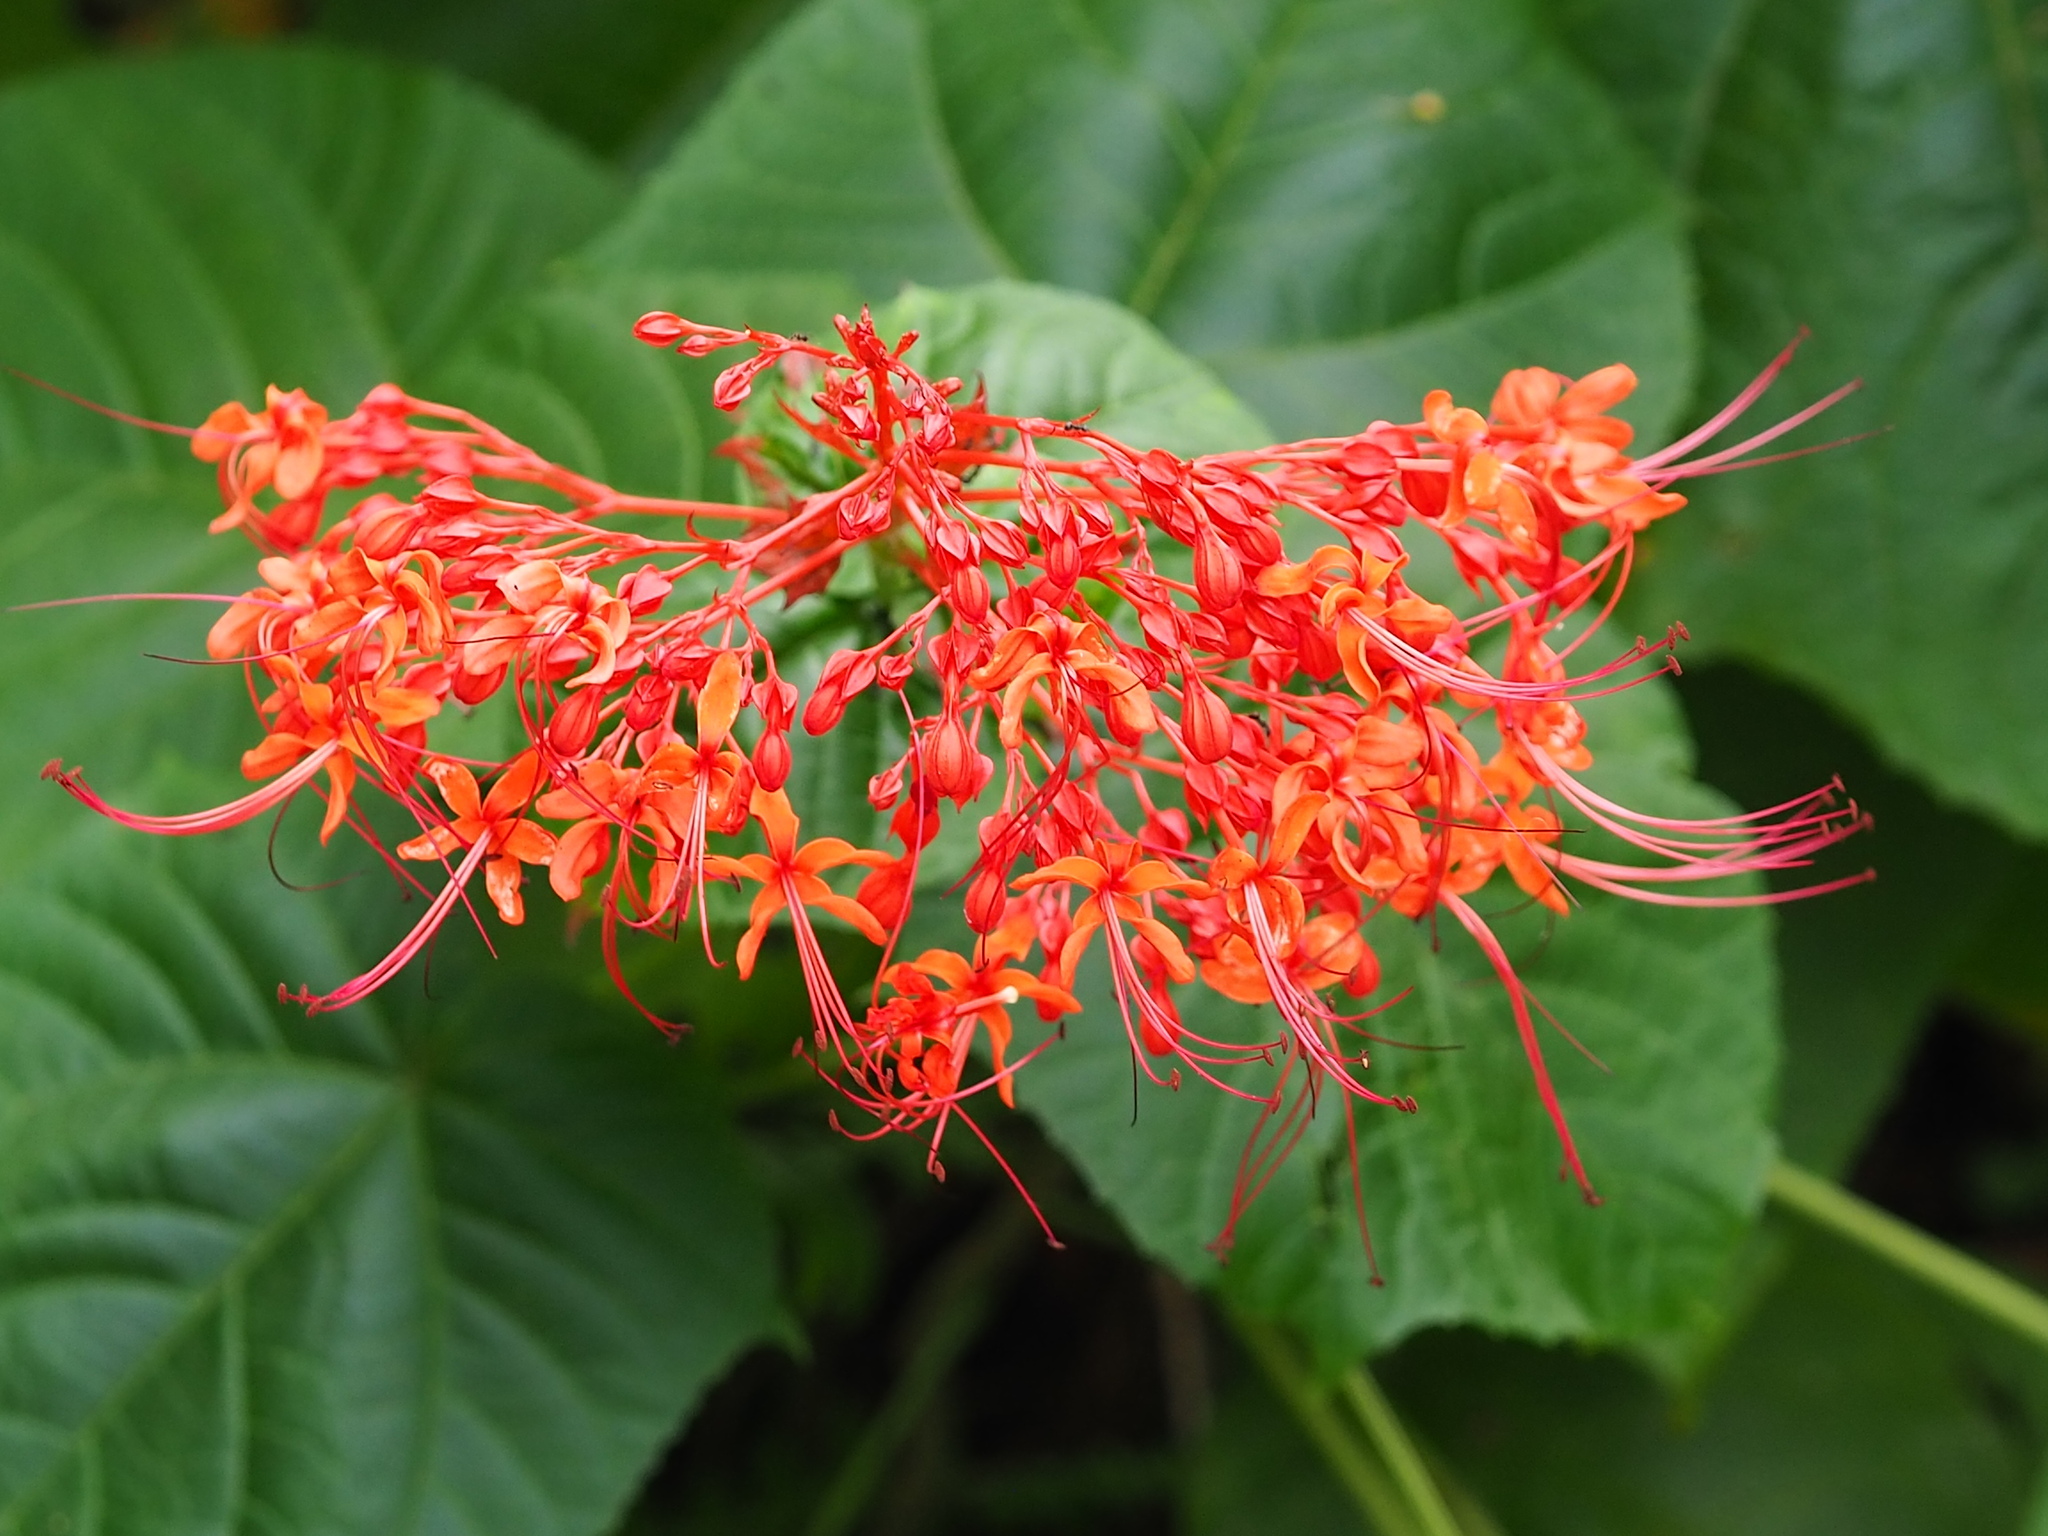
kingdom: Plantae
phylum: Tracheophyta
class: Magnoliopsida
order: Lamiales
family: Lamiaceae
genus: Clerodendrum
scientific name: Clerodendrum japonicum
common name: Japanese glorybower
